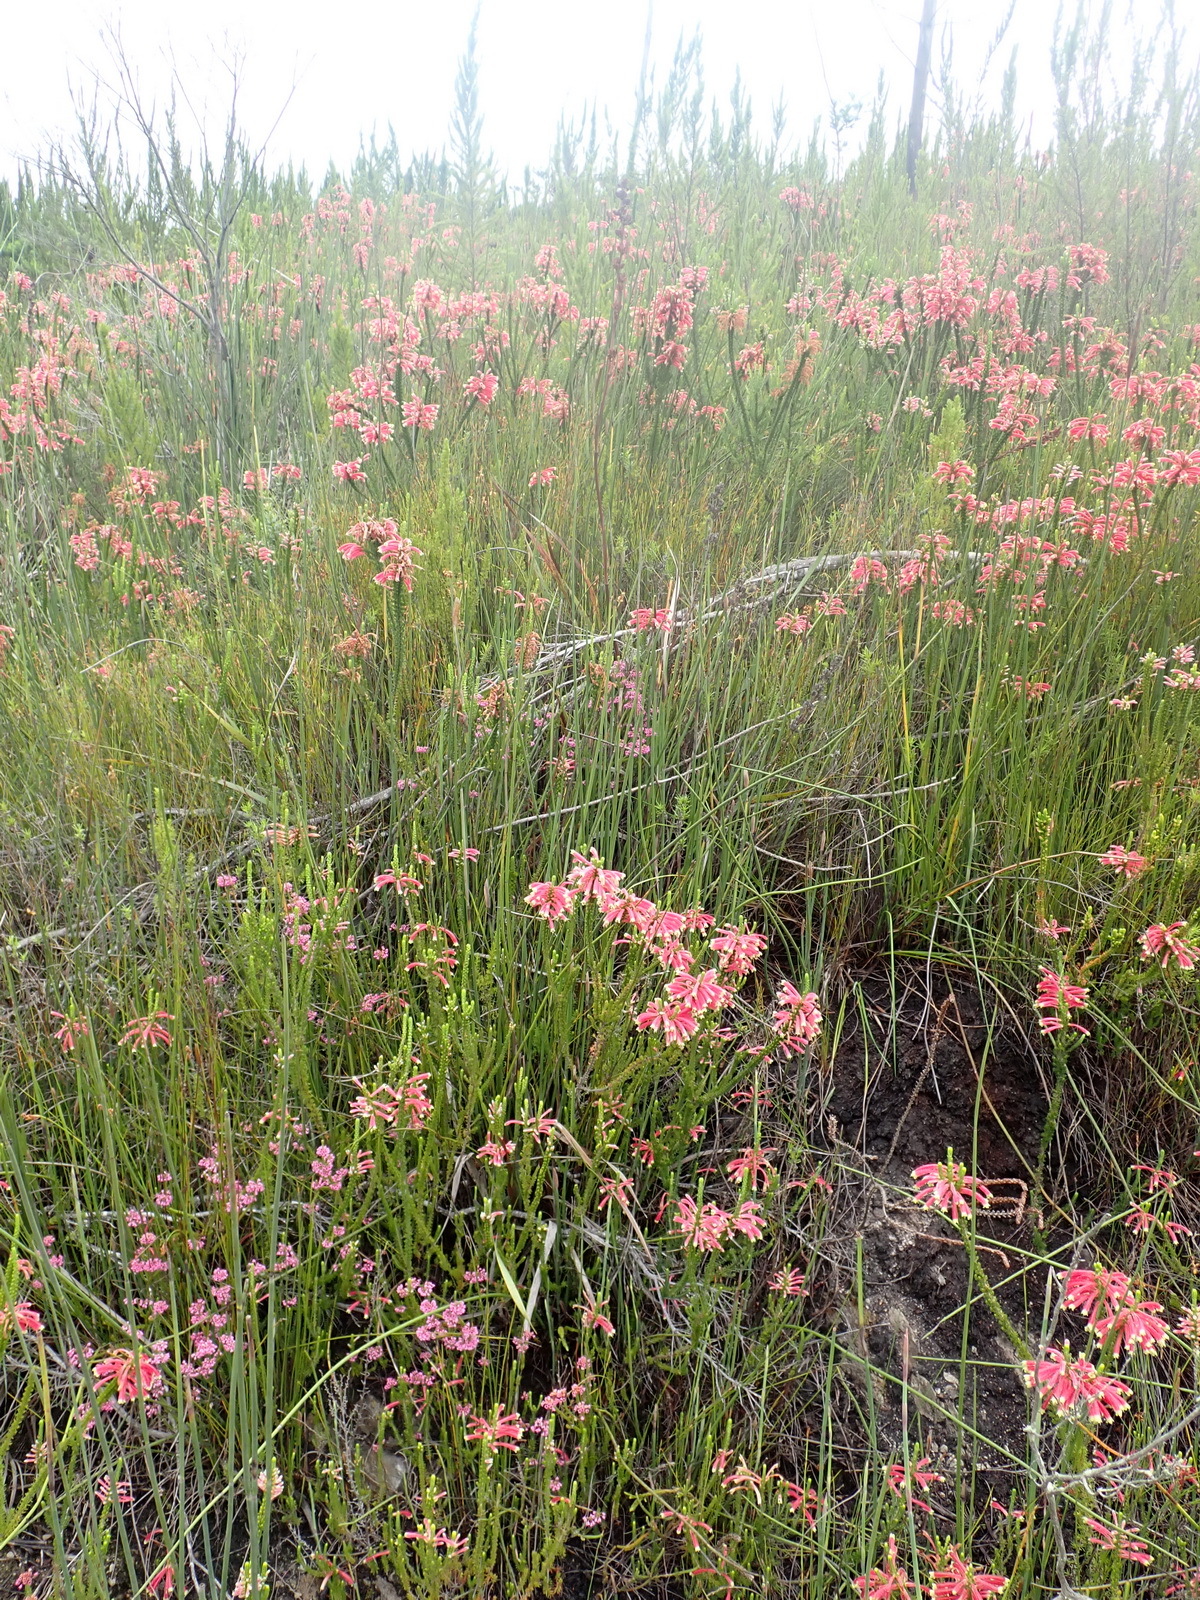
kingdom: Plantae
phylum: Tracheophyta
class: Magnoliopsida
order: Ericales
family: Ericaceae
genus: Erica
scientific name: Erica densifolia
